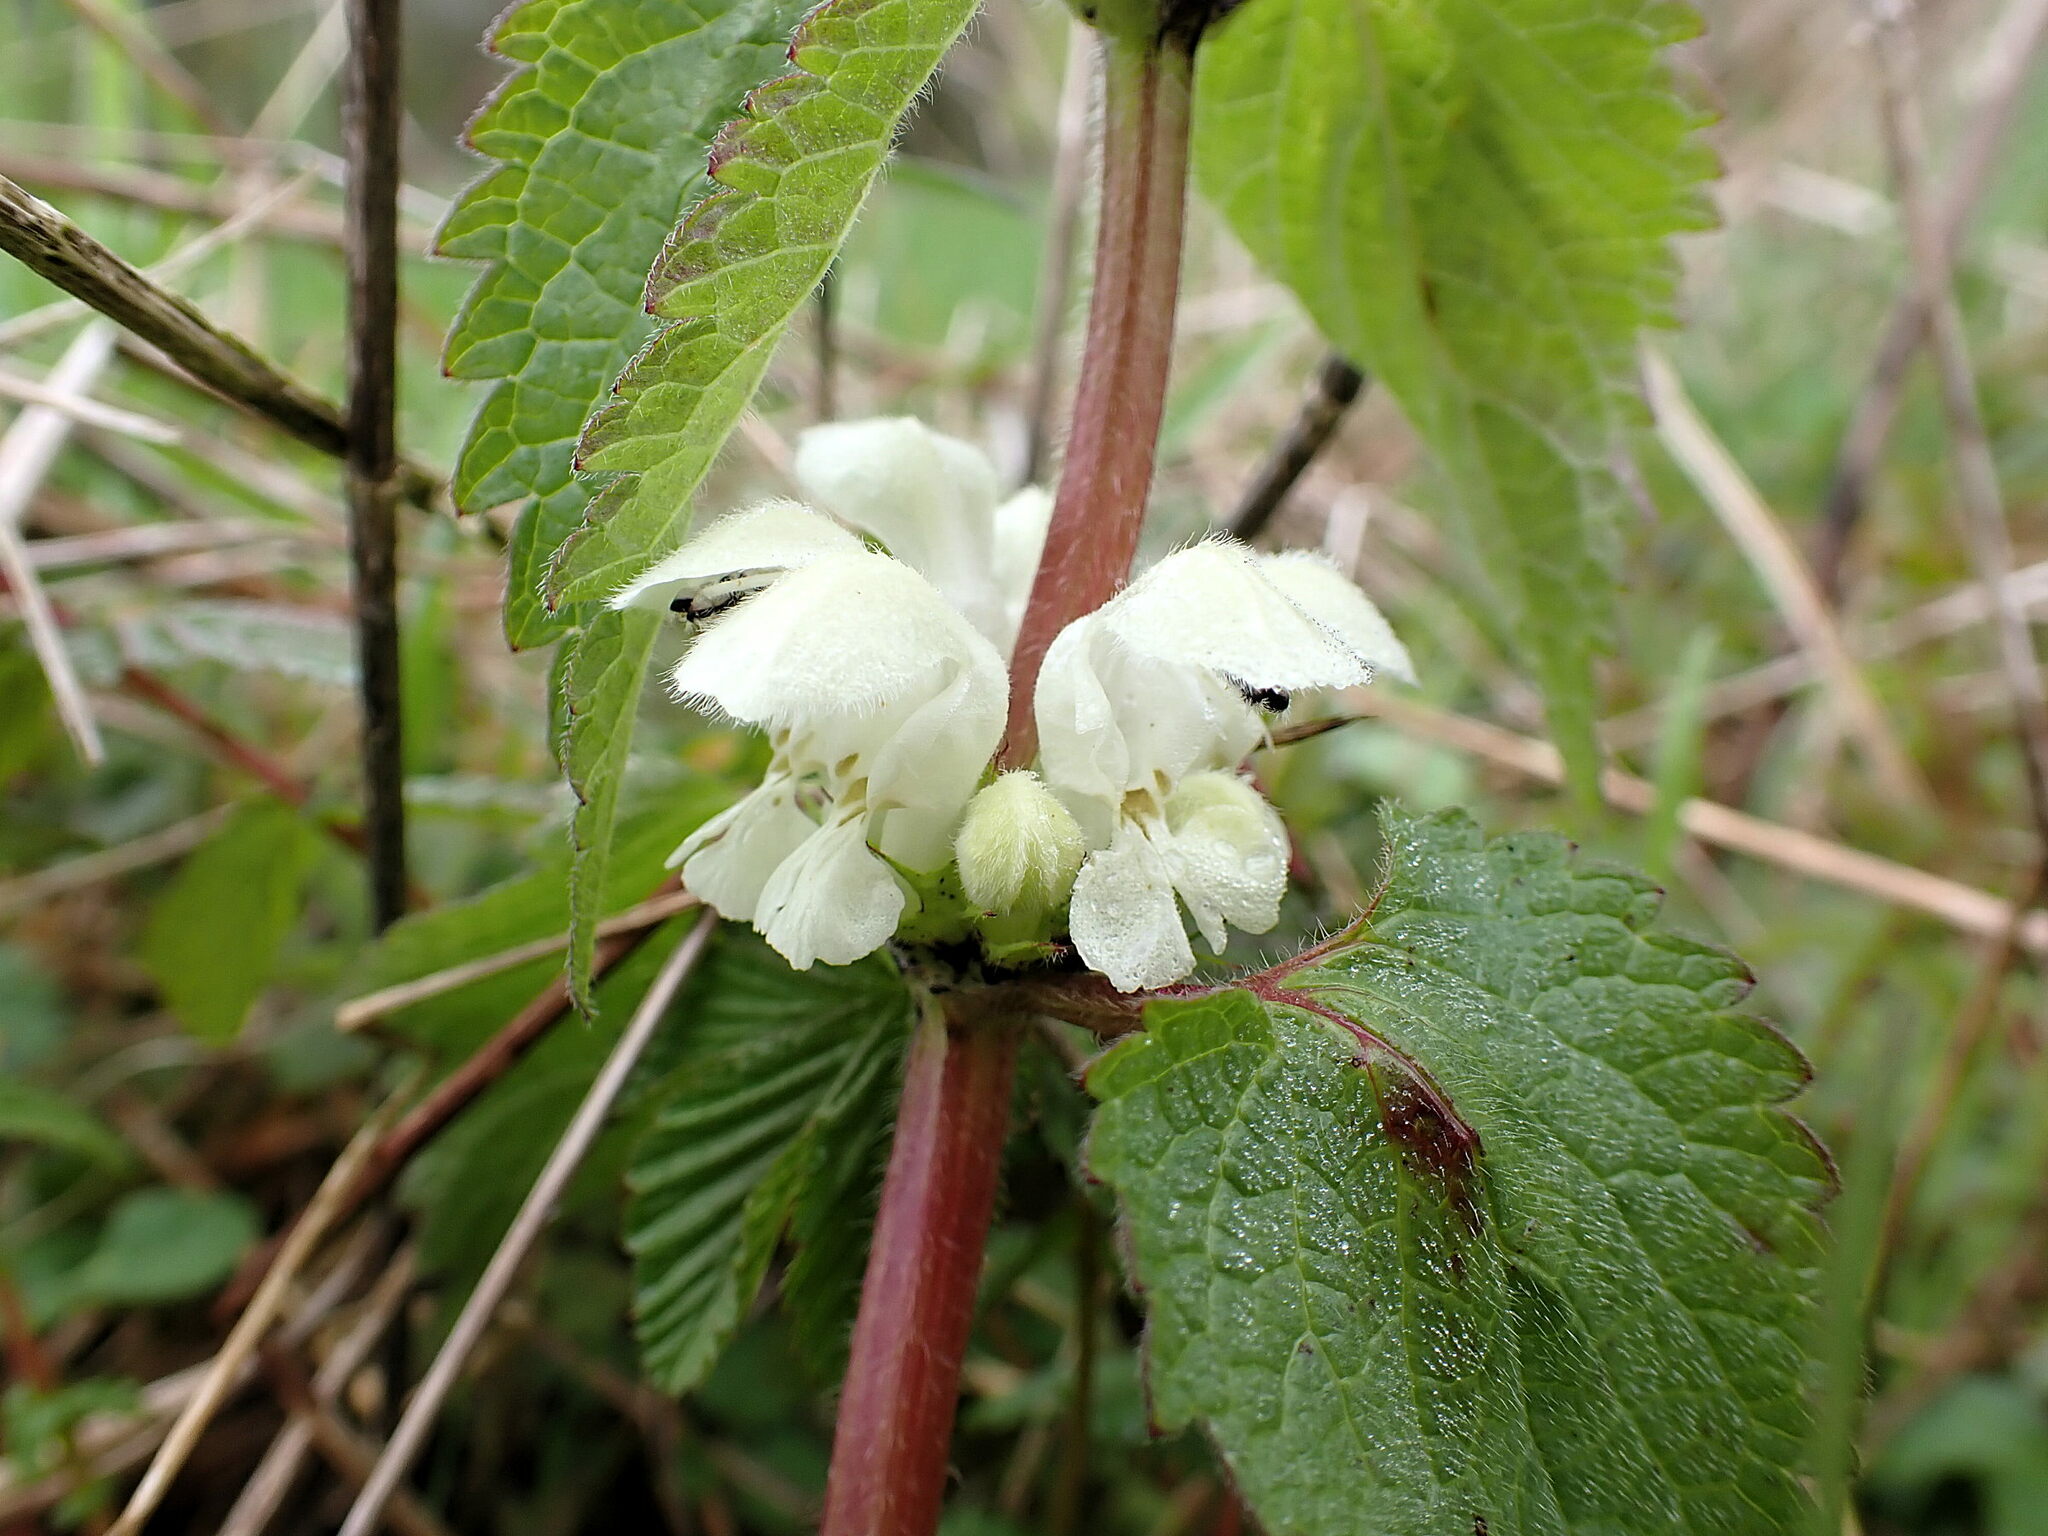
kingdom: Plantae
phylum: Tracheophyta
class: Magnoliopsida
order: Lamiales
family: Lamiaceae
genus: Lamium
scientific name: Lamium album
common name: White dead-nettle
